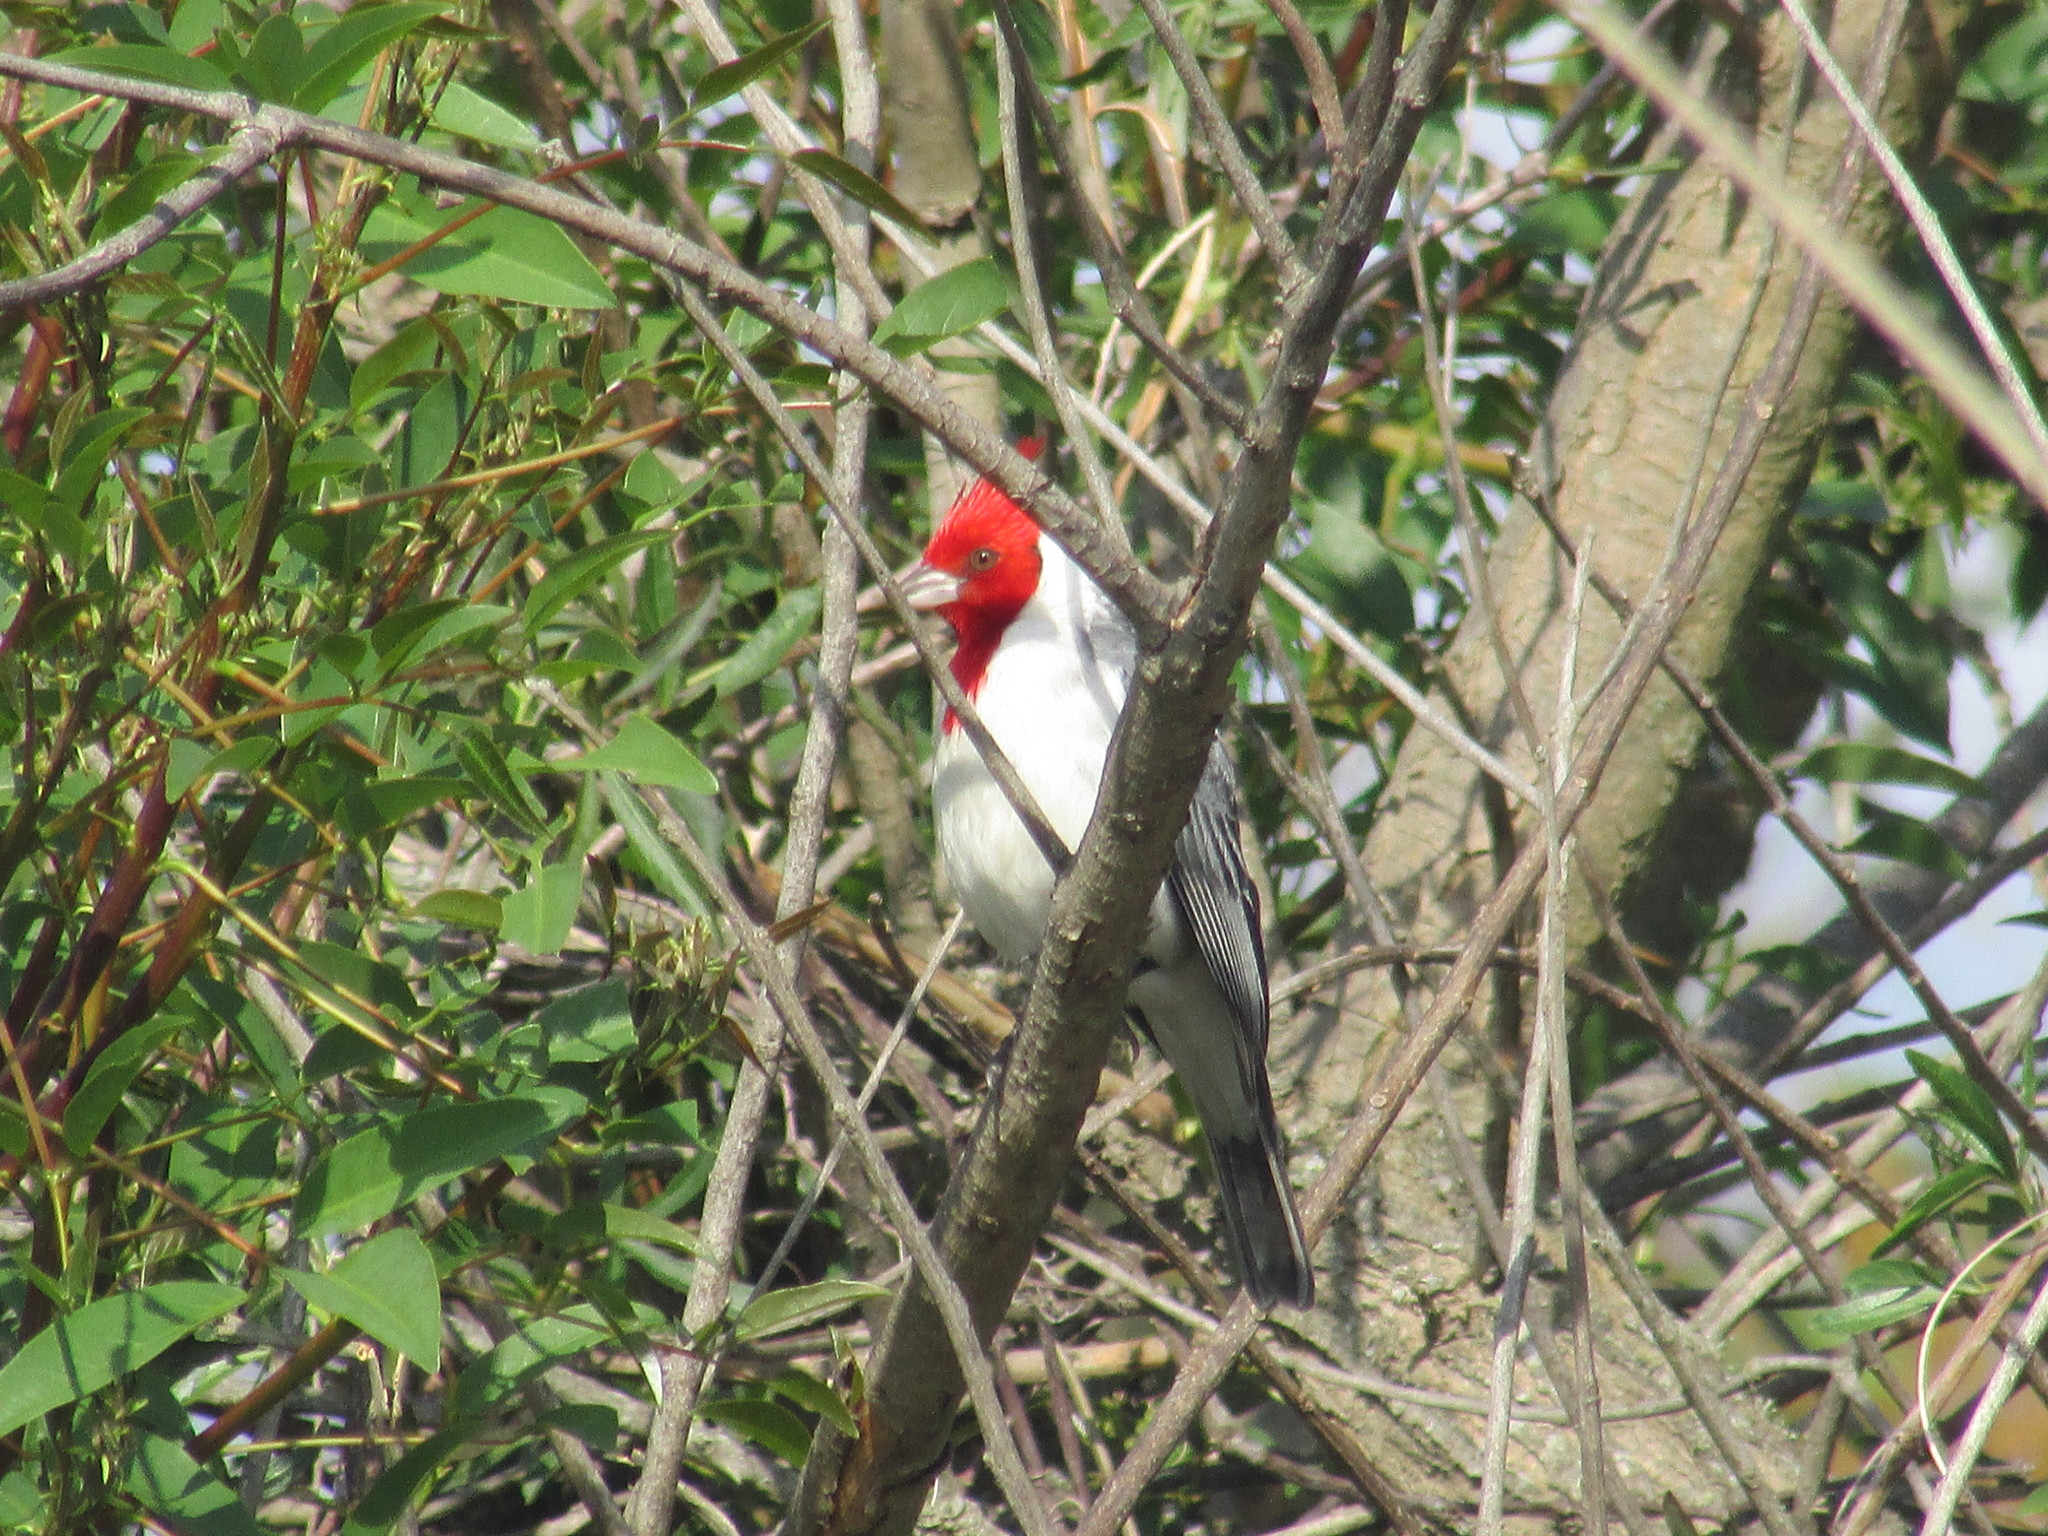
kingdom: Animalia
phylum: Chordata
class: Aves
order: Passeriformes
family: Thraupidae
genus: Paroaria
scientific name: Paroaria coronata
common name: Red-crested cardinal
